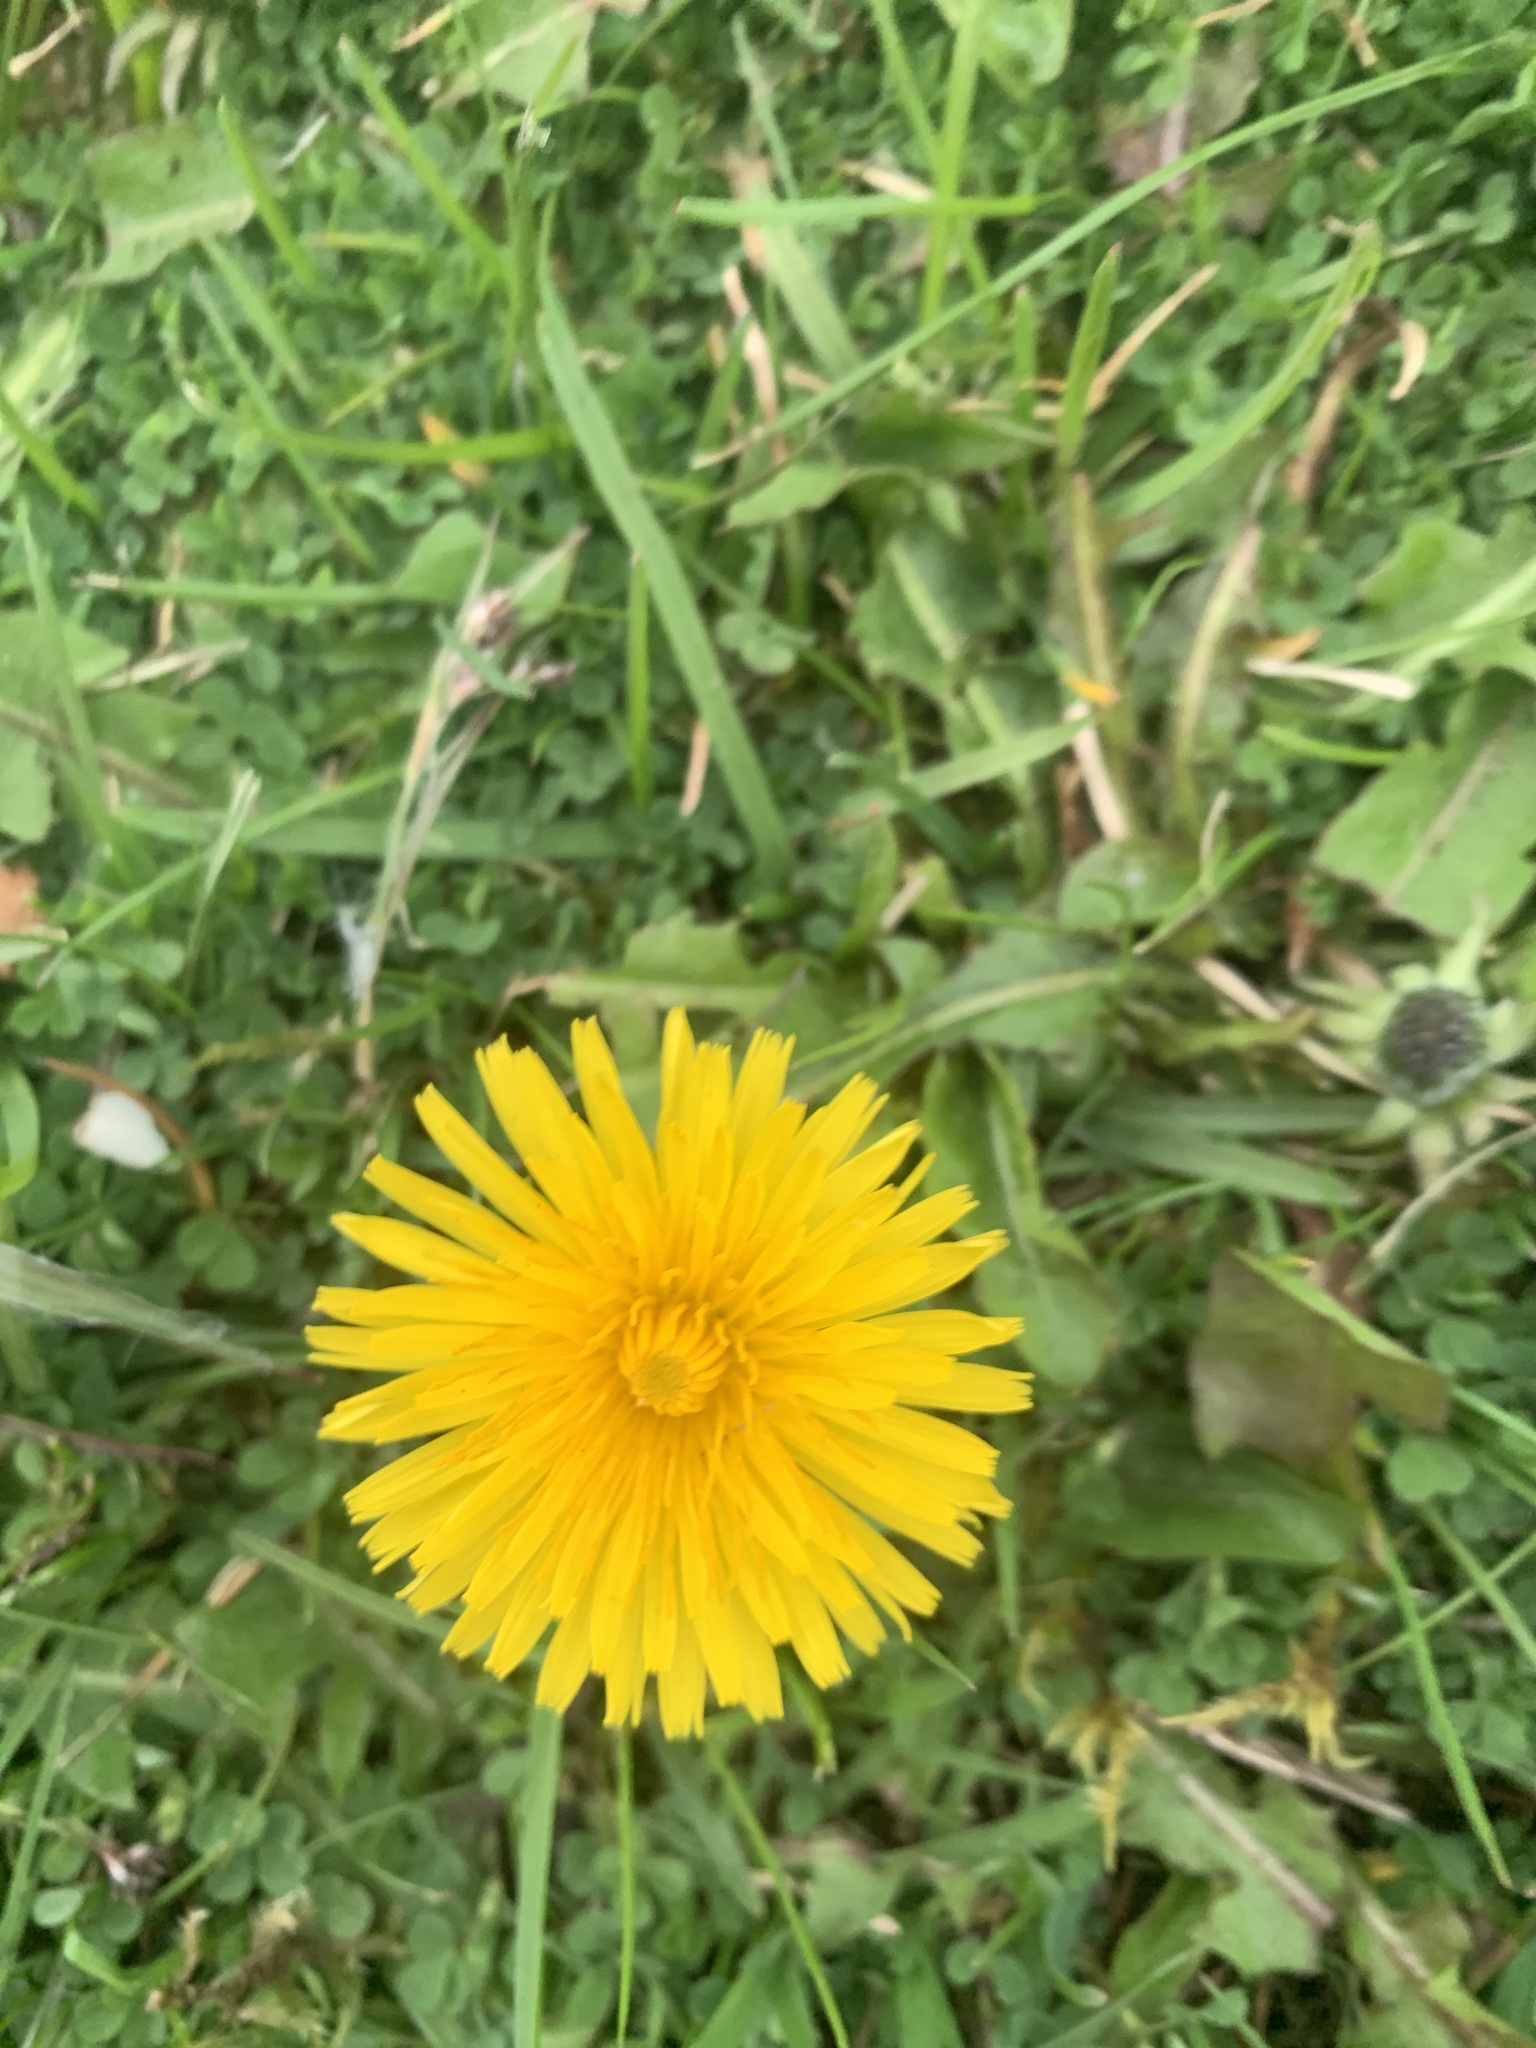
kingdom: Plantae
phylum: Tracheophyta
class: Magnoliopsida
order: Asterales
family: Asteraceae
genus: Taraxacum
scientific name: Taraxacum officinale
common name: Common dandelion
